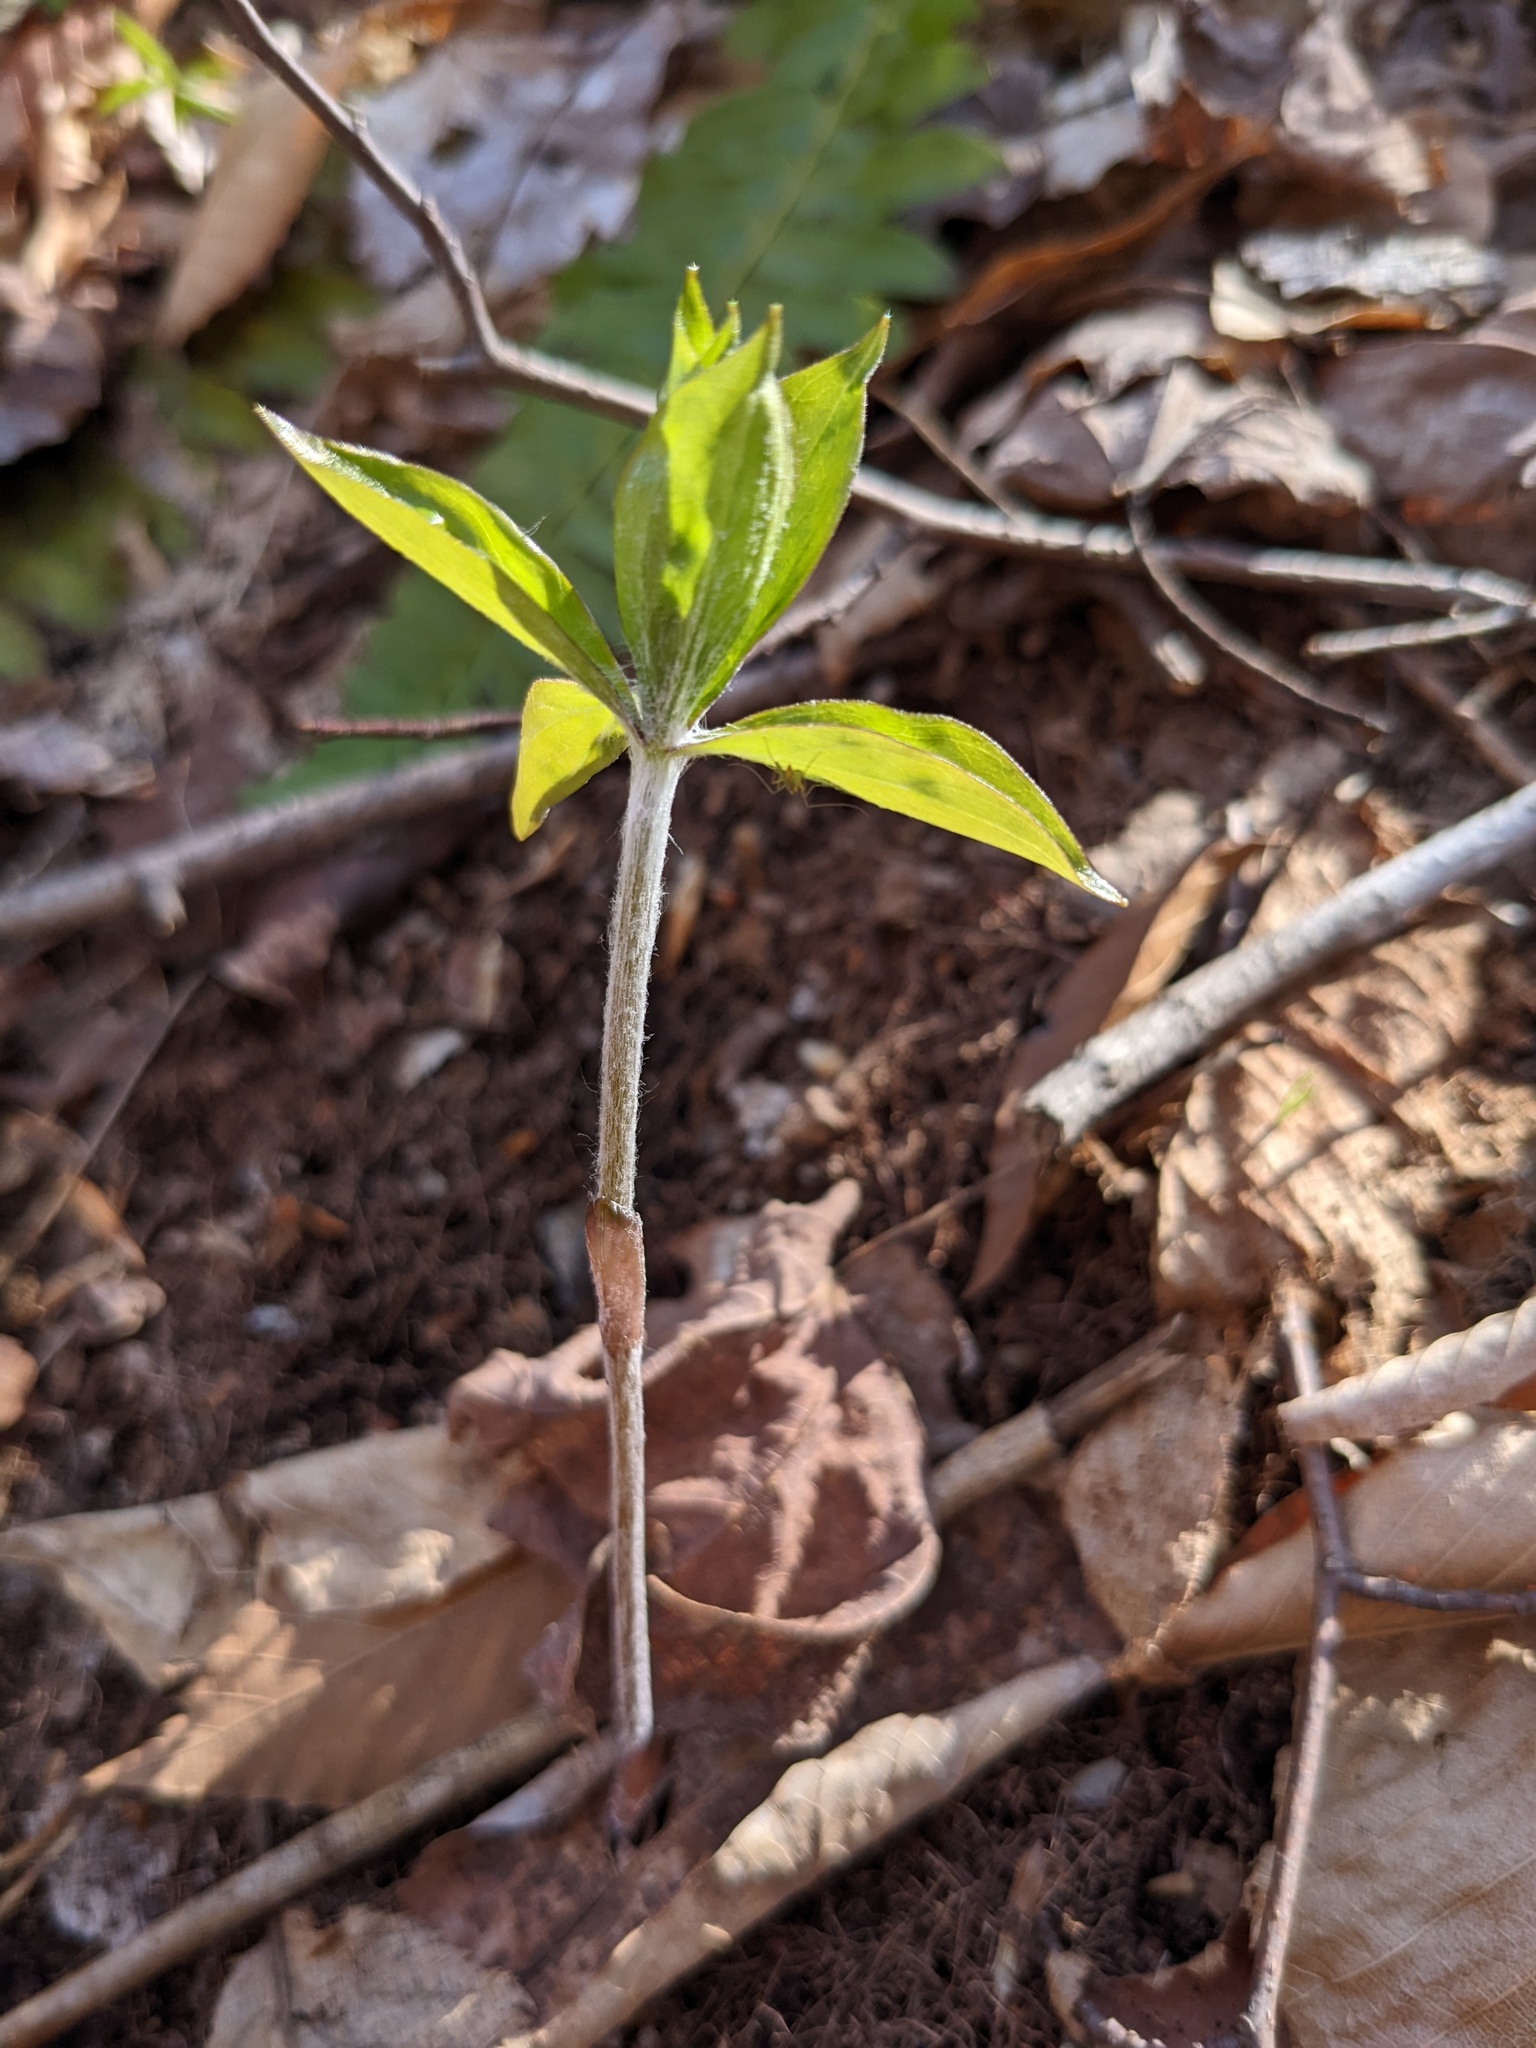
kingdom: Plantae
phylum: Tracheophyta
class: Liliopsida
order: Liliales
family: Liliaceae
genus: Medeola
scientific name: Medeola virginiana
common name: Indian cucumber-root
